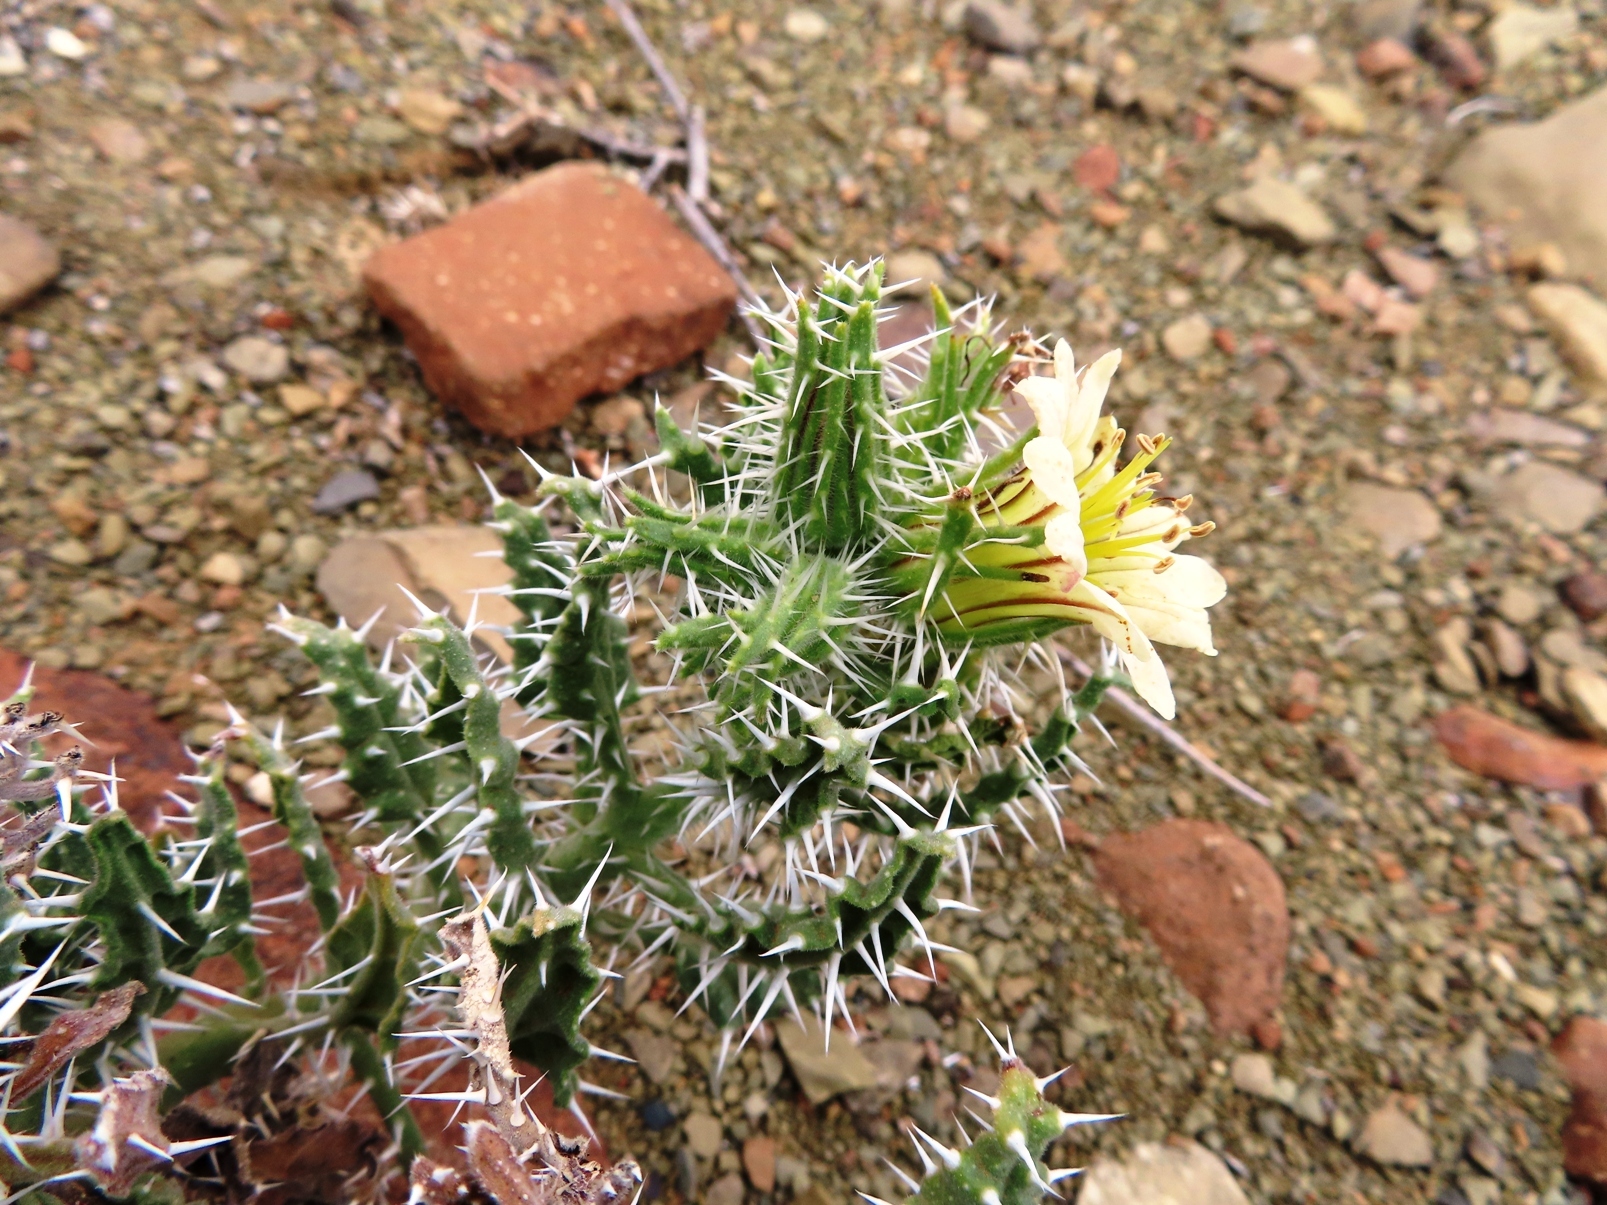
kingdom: Plantae
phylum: Tracheophyta
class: Magnoliopsida
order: Boraginales
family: Boraginaceae
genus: Codon
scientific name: Codon royenii
